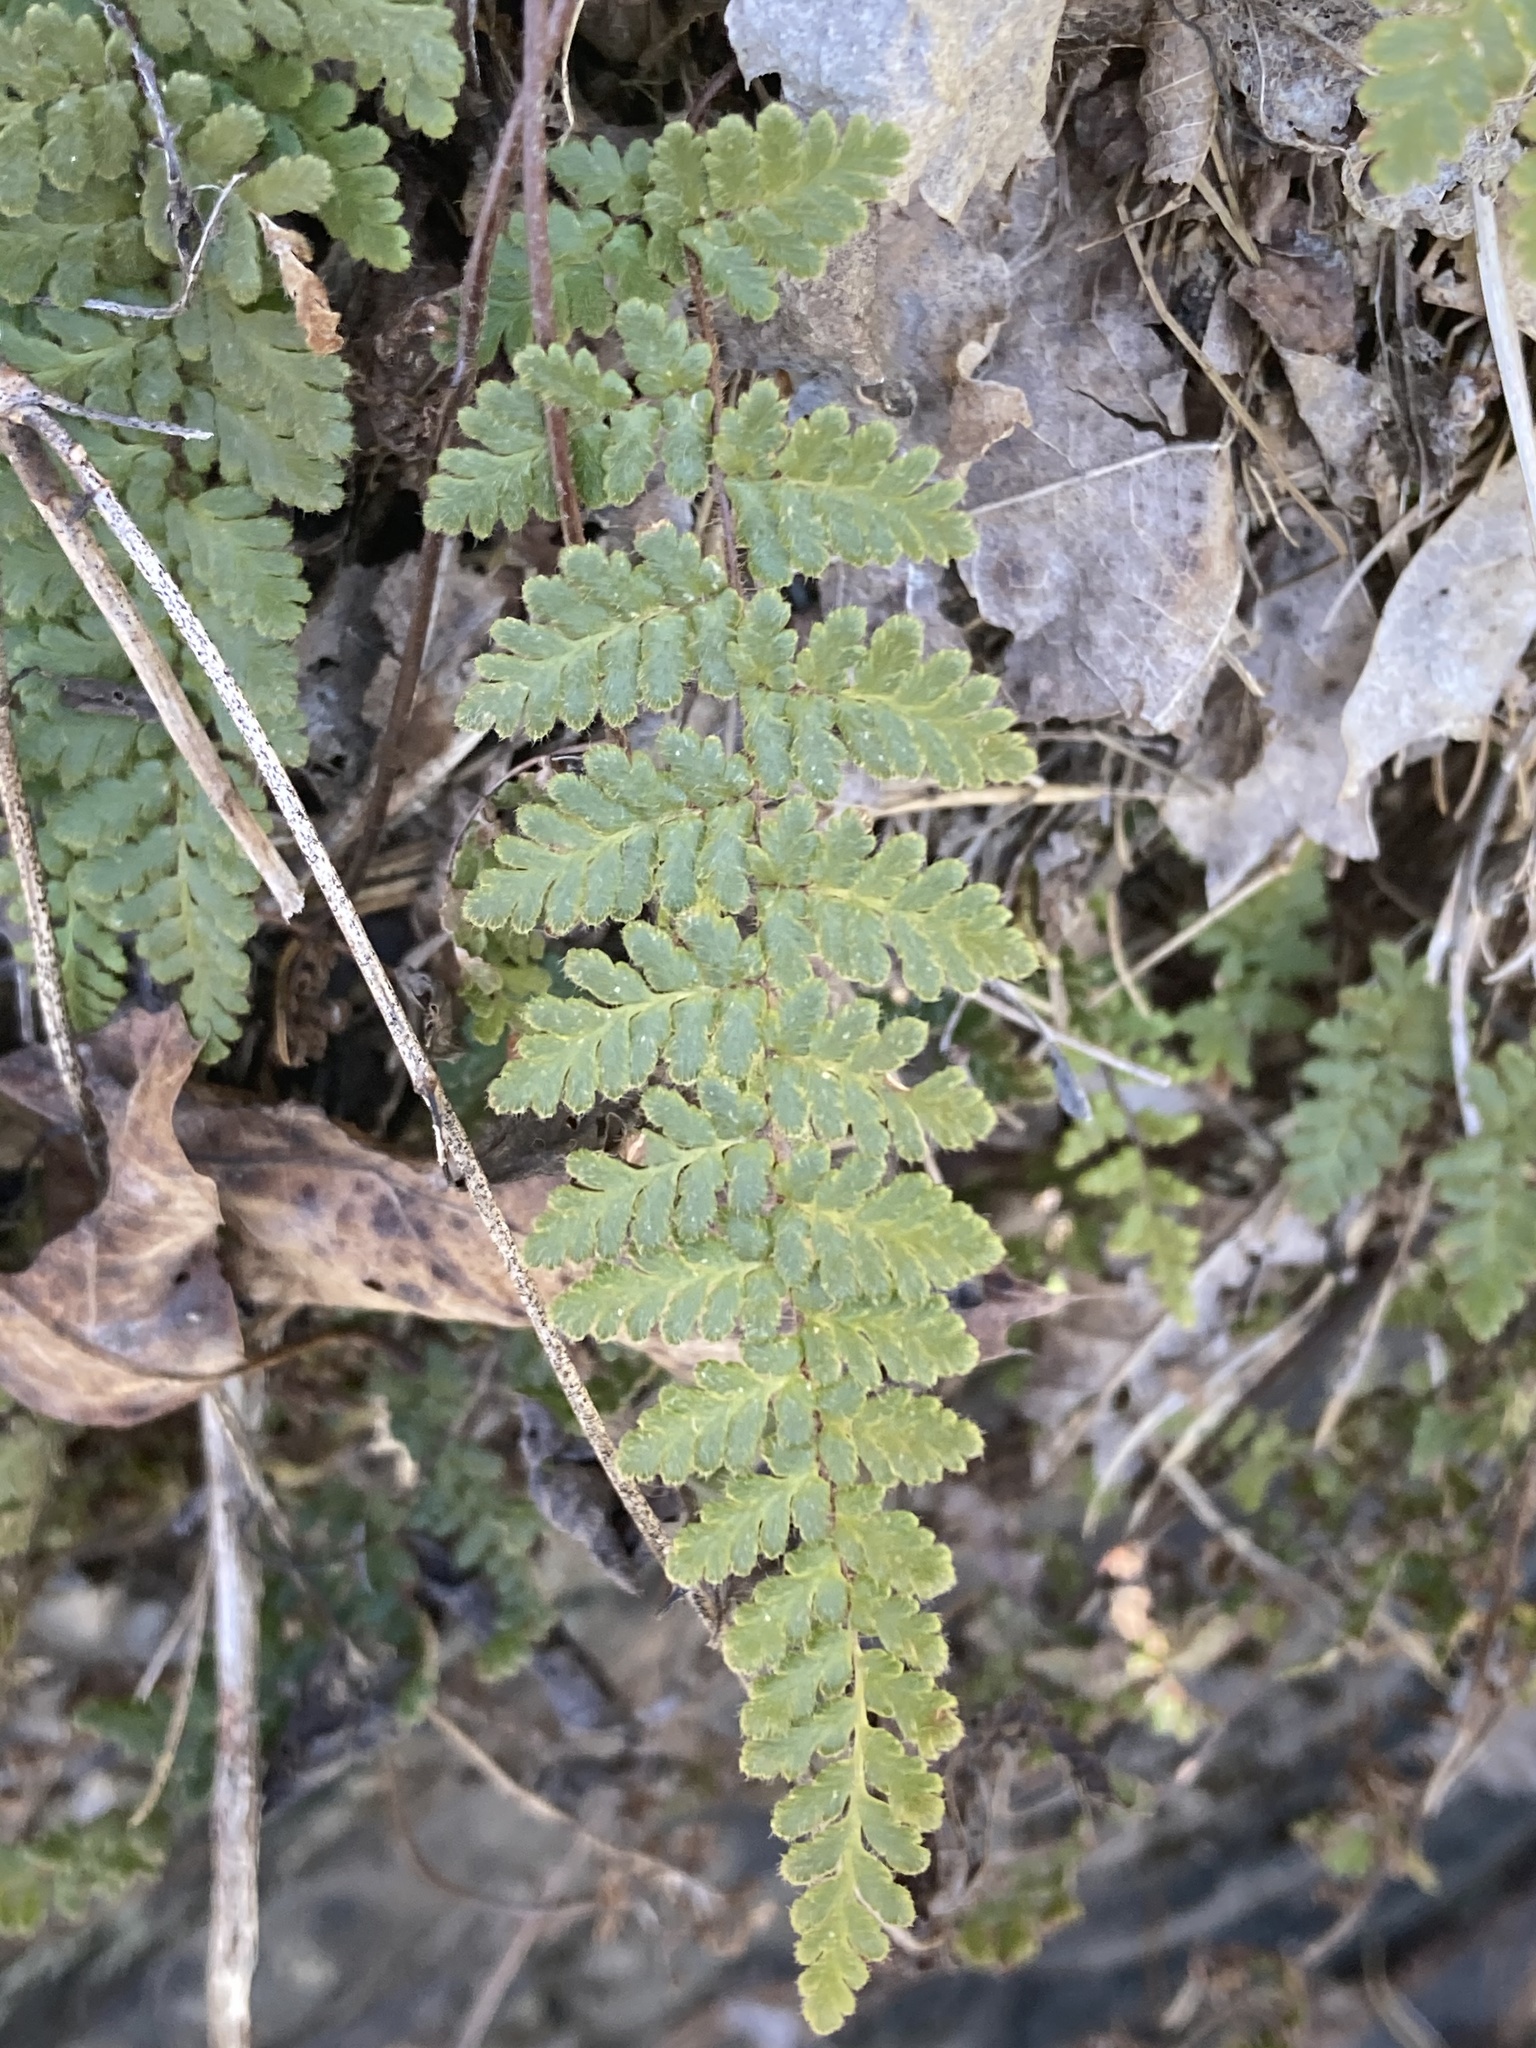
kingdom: Plantae
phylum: Tracheophyta
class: Polypodiopsida
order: Polypodiales
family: Pteridaceae
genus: Myriopteris
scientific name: Myriopteris lanosa
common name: Hairy lip fern
